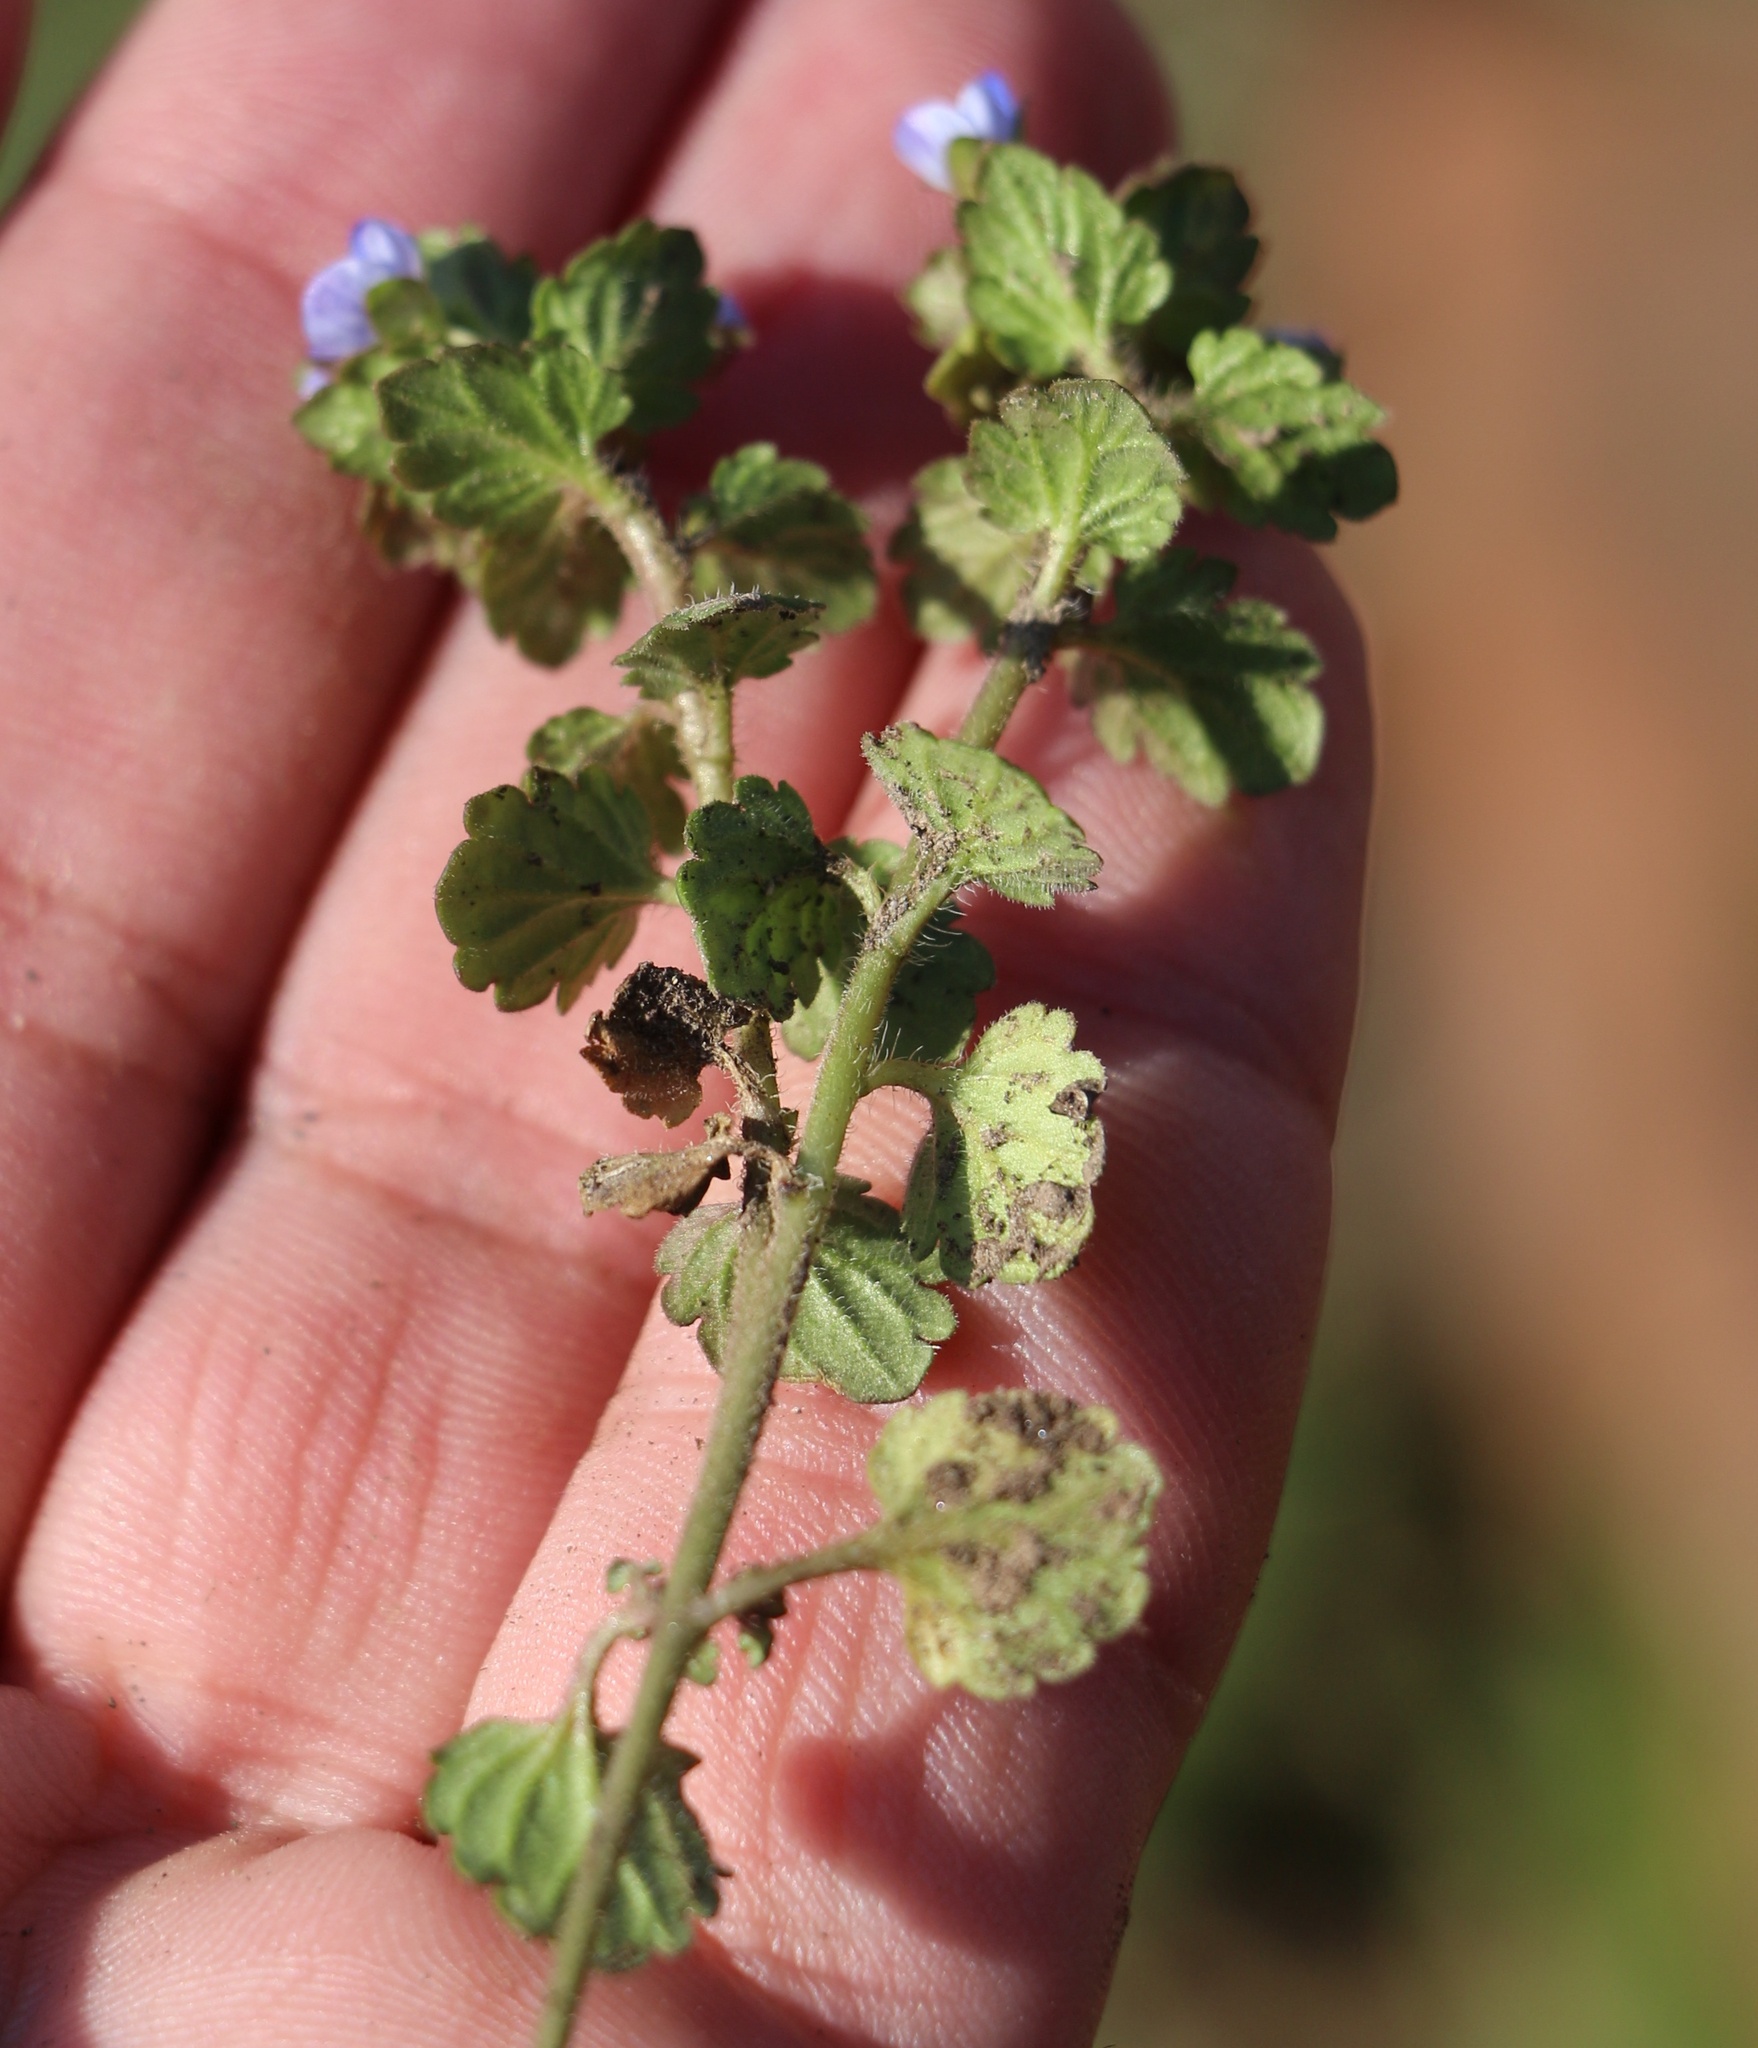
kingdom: Plantae
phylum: Tracheophyta
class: Magnoliopsida
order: Lamiales
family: Plantaginaceae
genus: Veronica
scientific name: Veronica polita
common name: Grey field-speedwell
